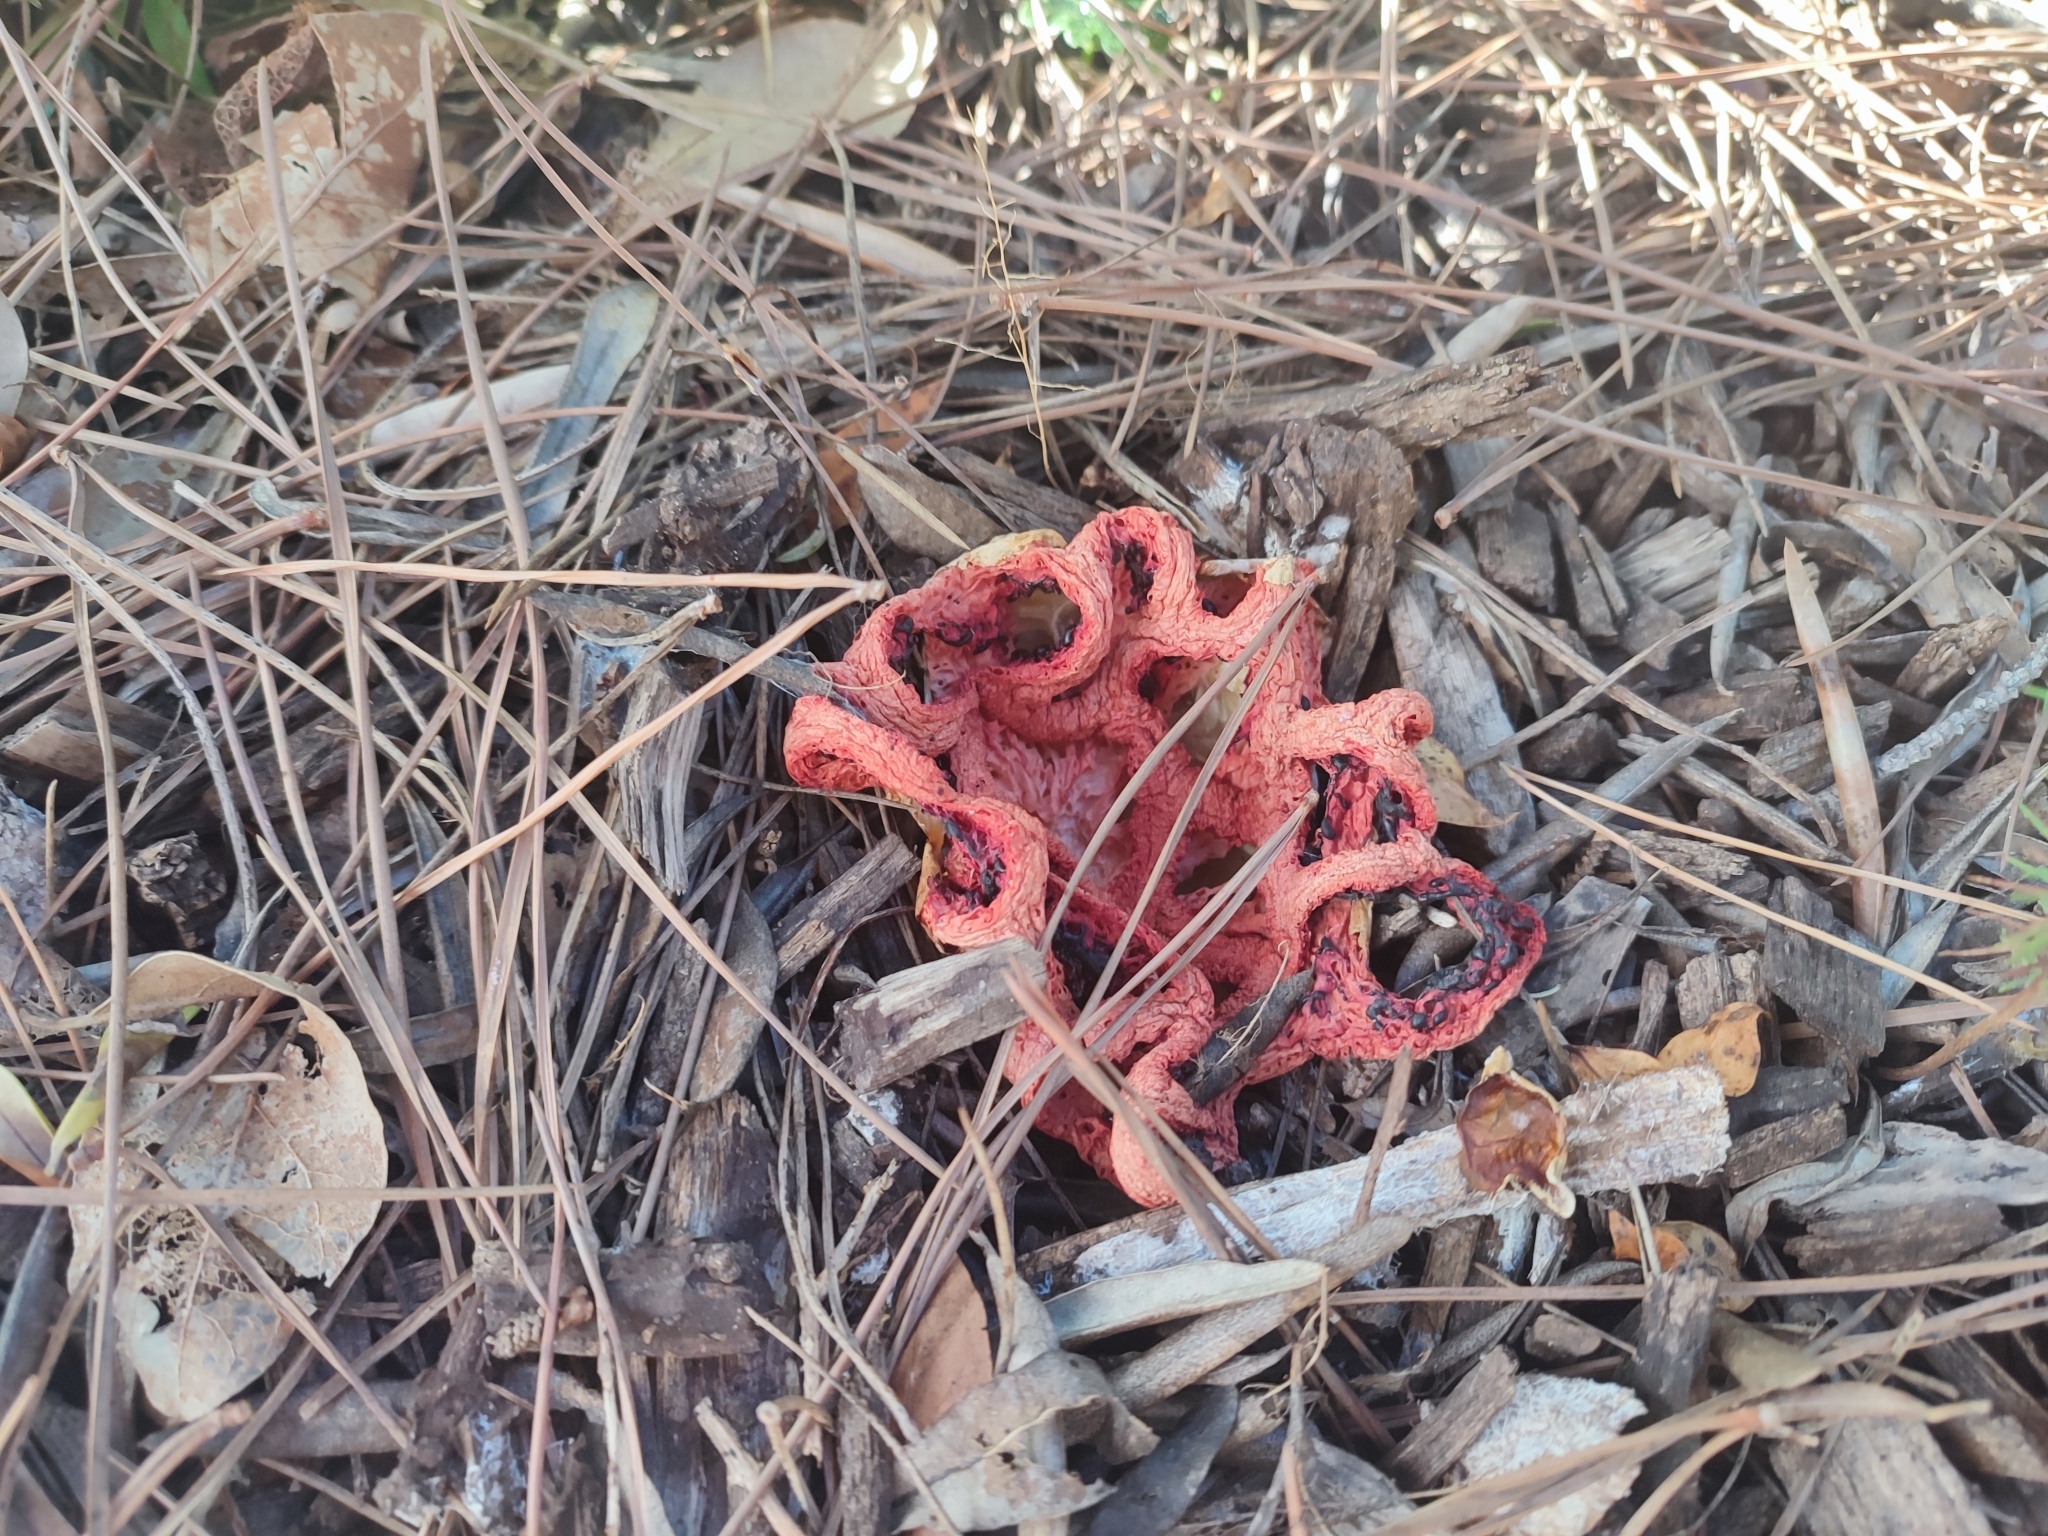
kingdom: Fungi
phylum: Basidiomycota
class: Agaricomycetes
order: Phallales
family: Phallaceae
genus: Clathrus
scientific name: Clathrus ruber
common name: Red cage
